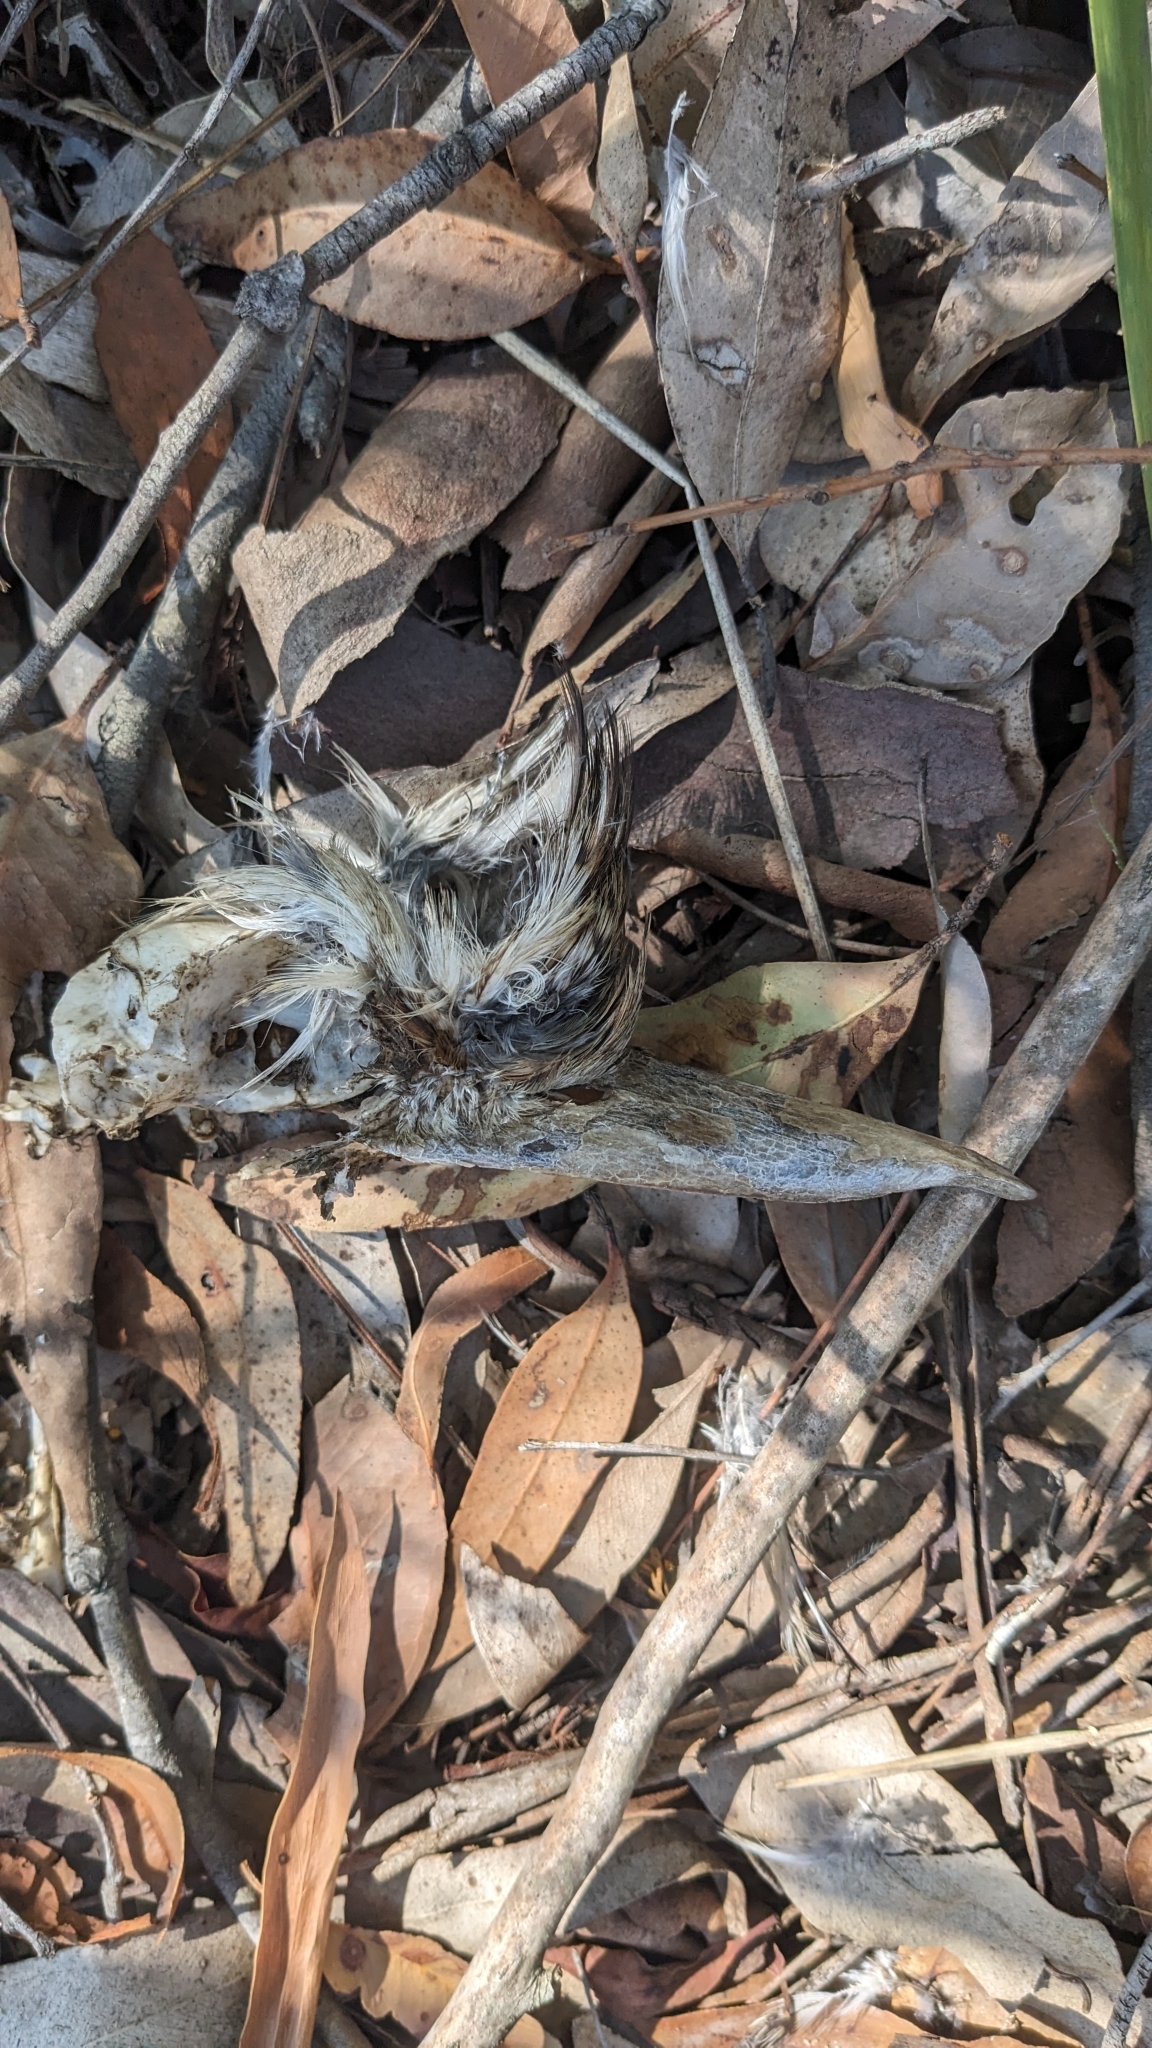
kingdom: Animalia
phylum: Chordata
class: Aves
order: Coraciiformes
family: Alcedinidae
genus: Dacelo
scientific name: Dacelo novaeguineae
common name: Laughing kookaburra
